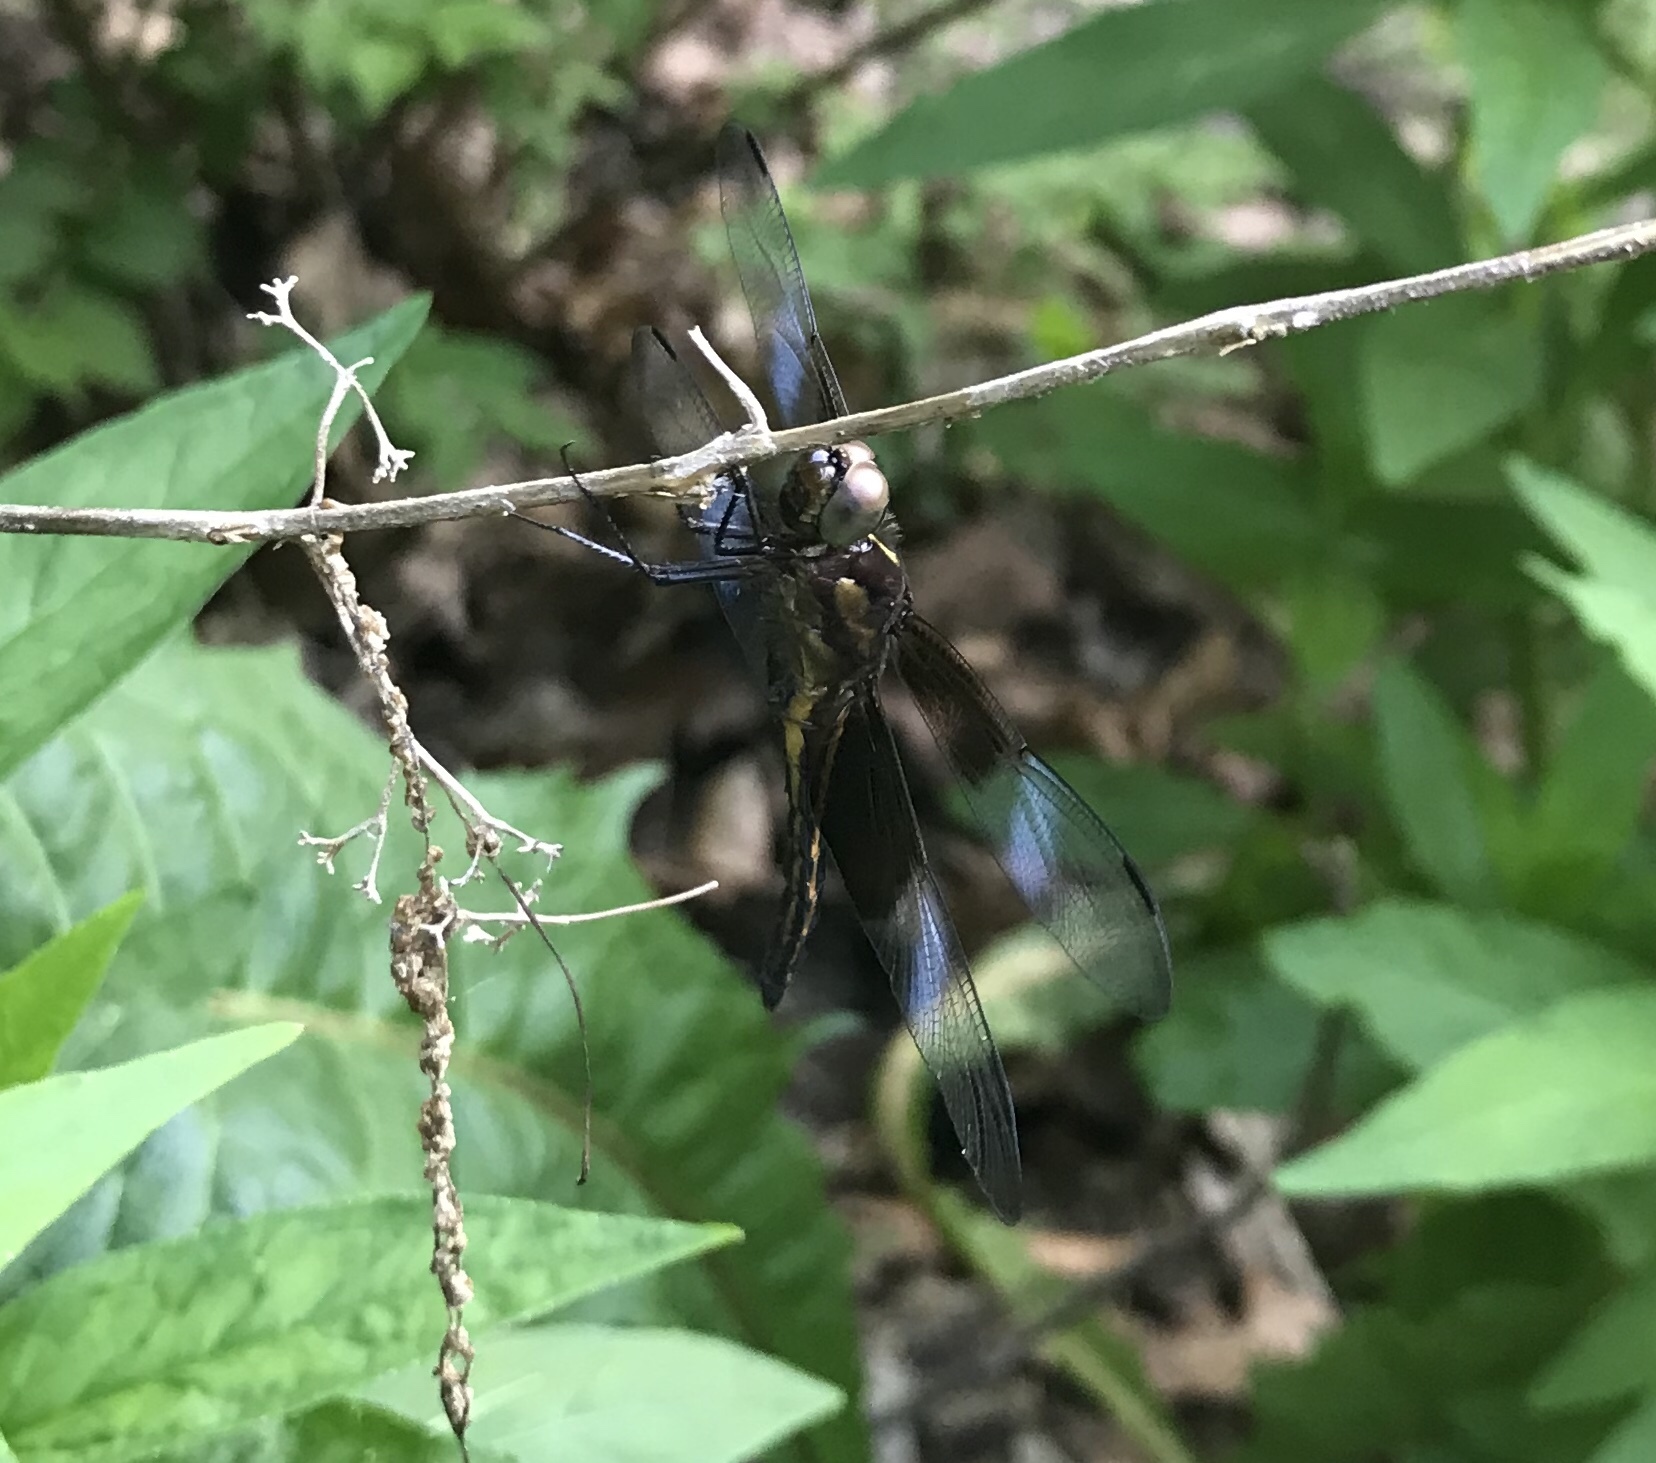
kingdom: Animalia
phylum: Arthropoda
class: Insecta
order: Odonata
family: Libellulidae
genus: Libellula
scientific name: Libellula luctuosa
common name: Widow skimmer
